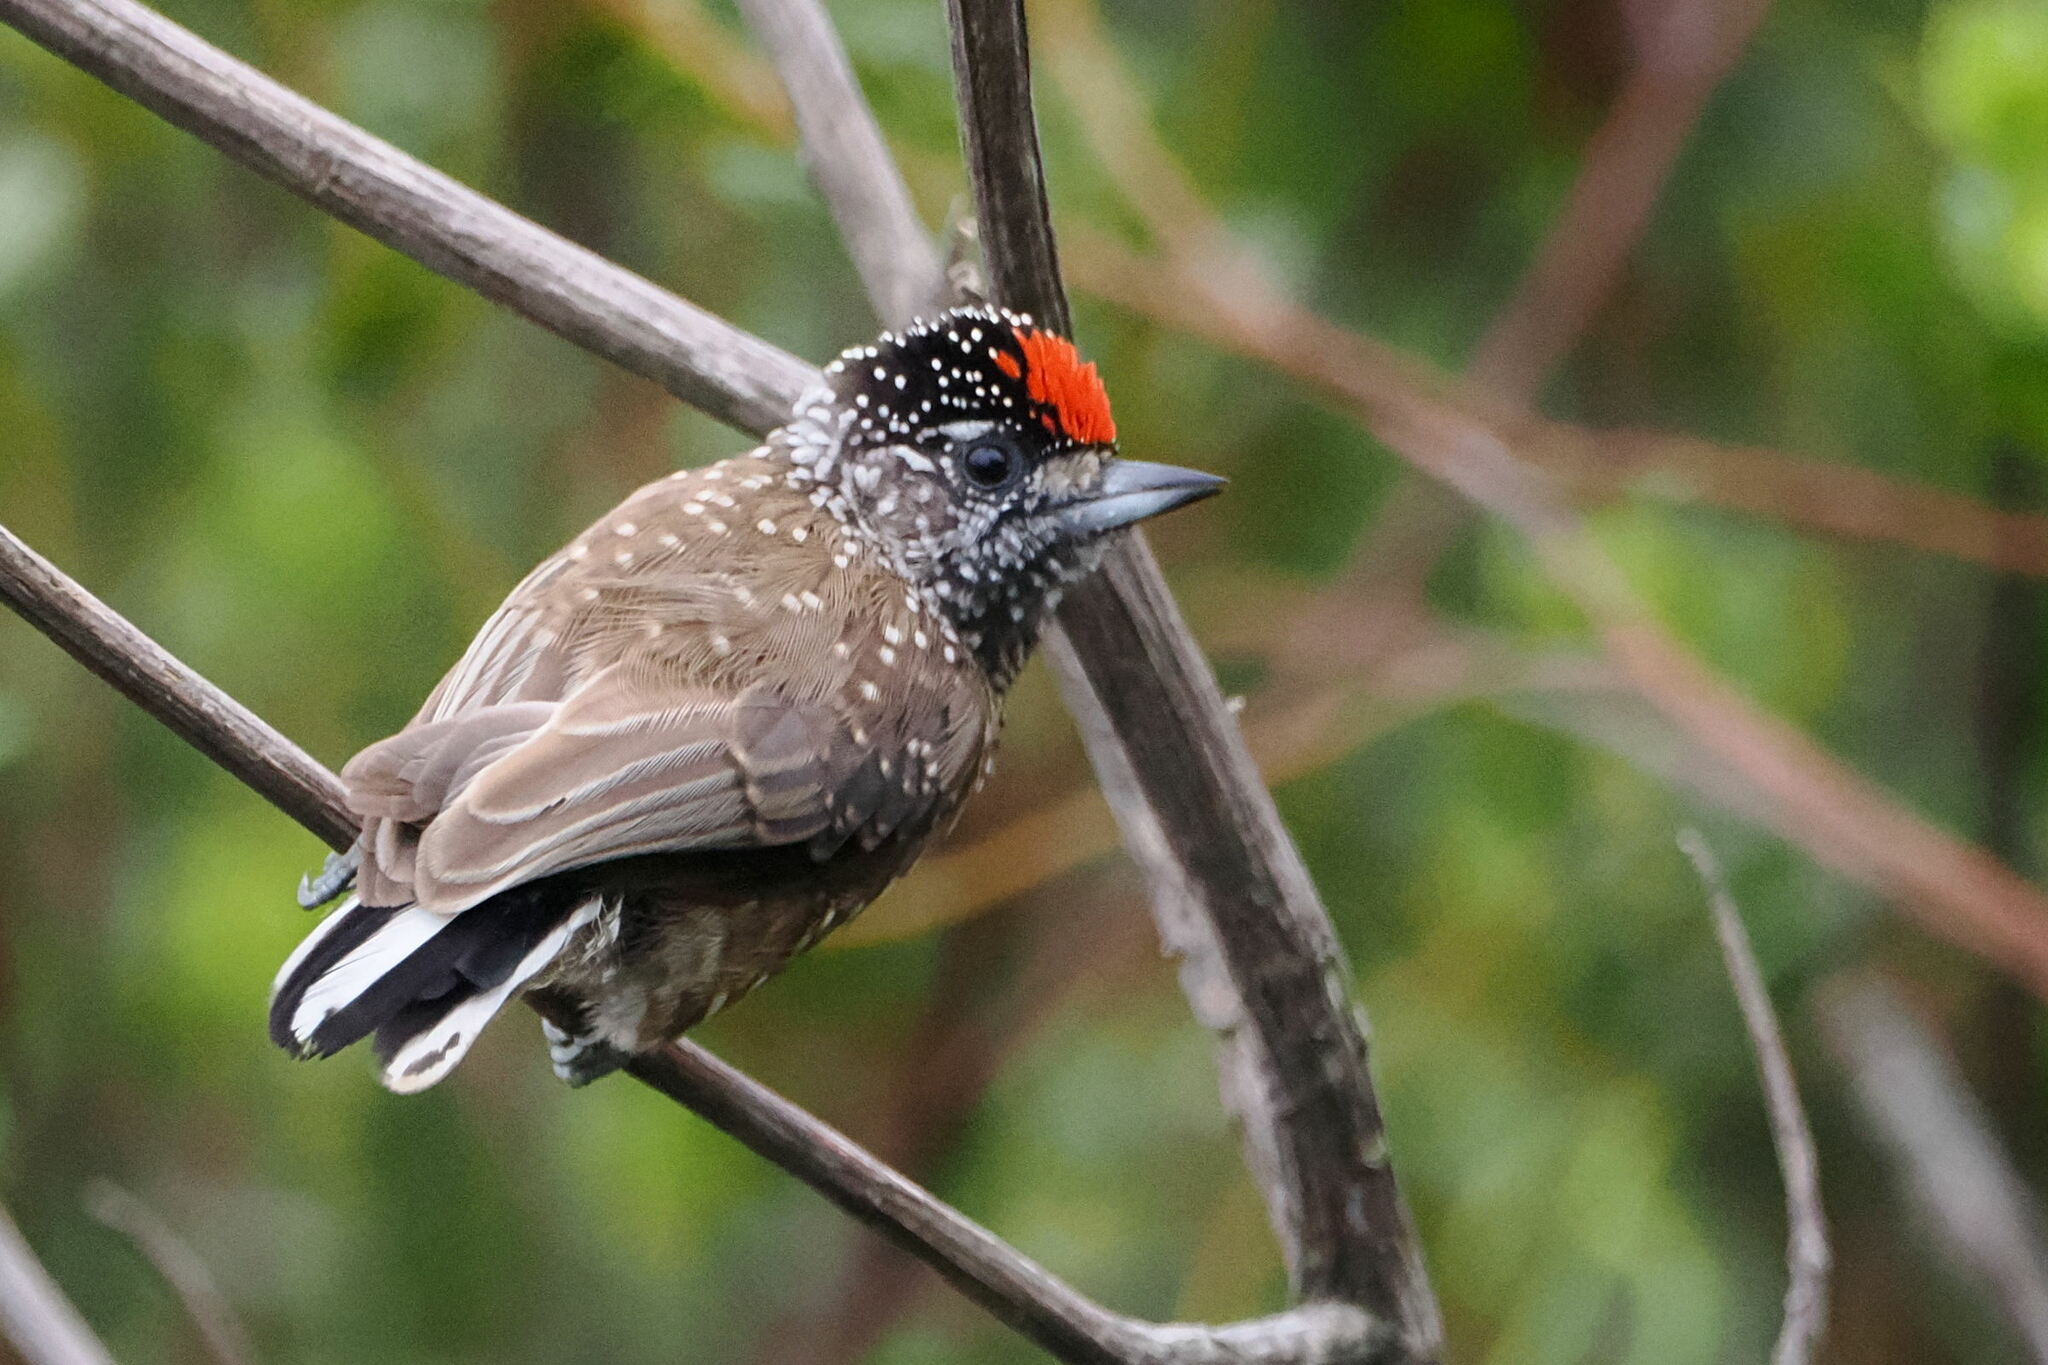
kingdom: Animalia
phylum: Chordata
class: Aves
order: Piciformes
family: Picidae
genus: Picumnus
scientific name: Picumnus pygmaeus
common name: Spotted piculet
